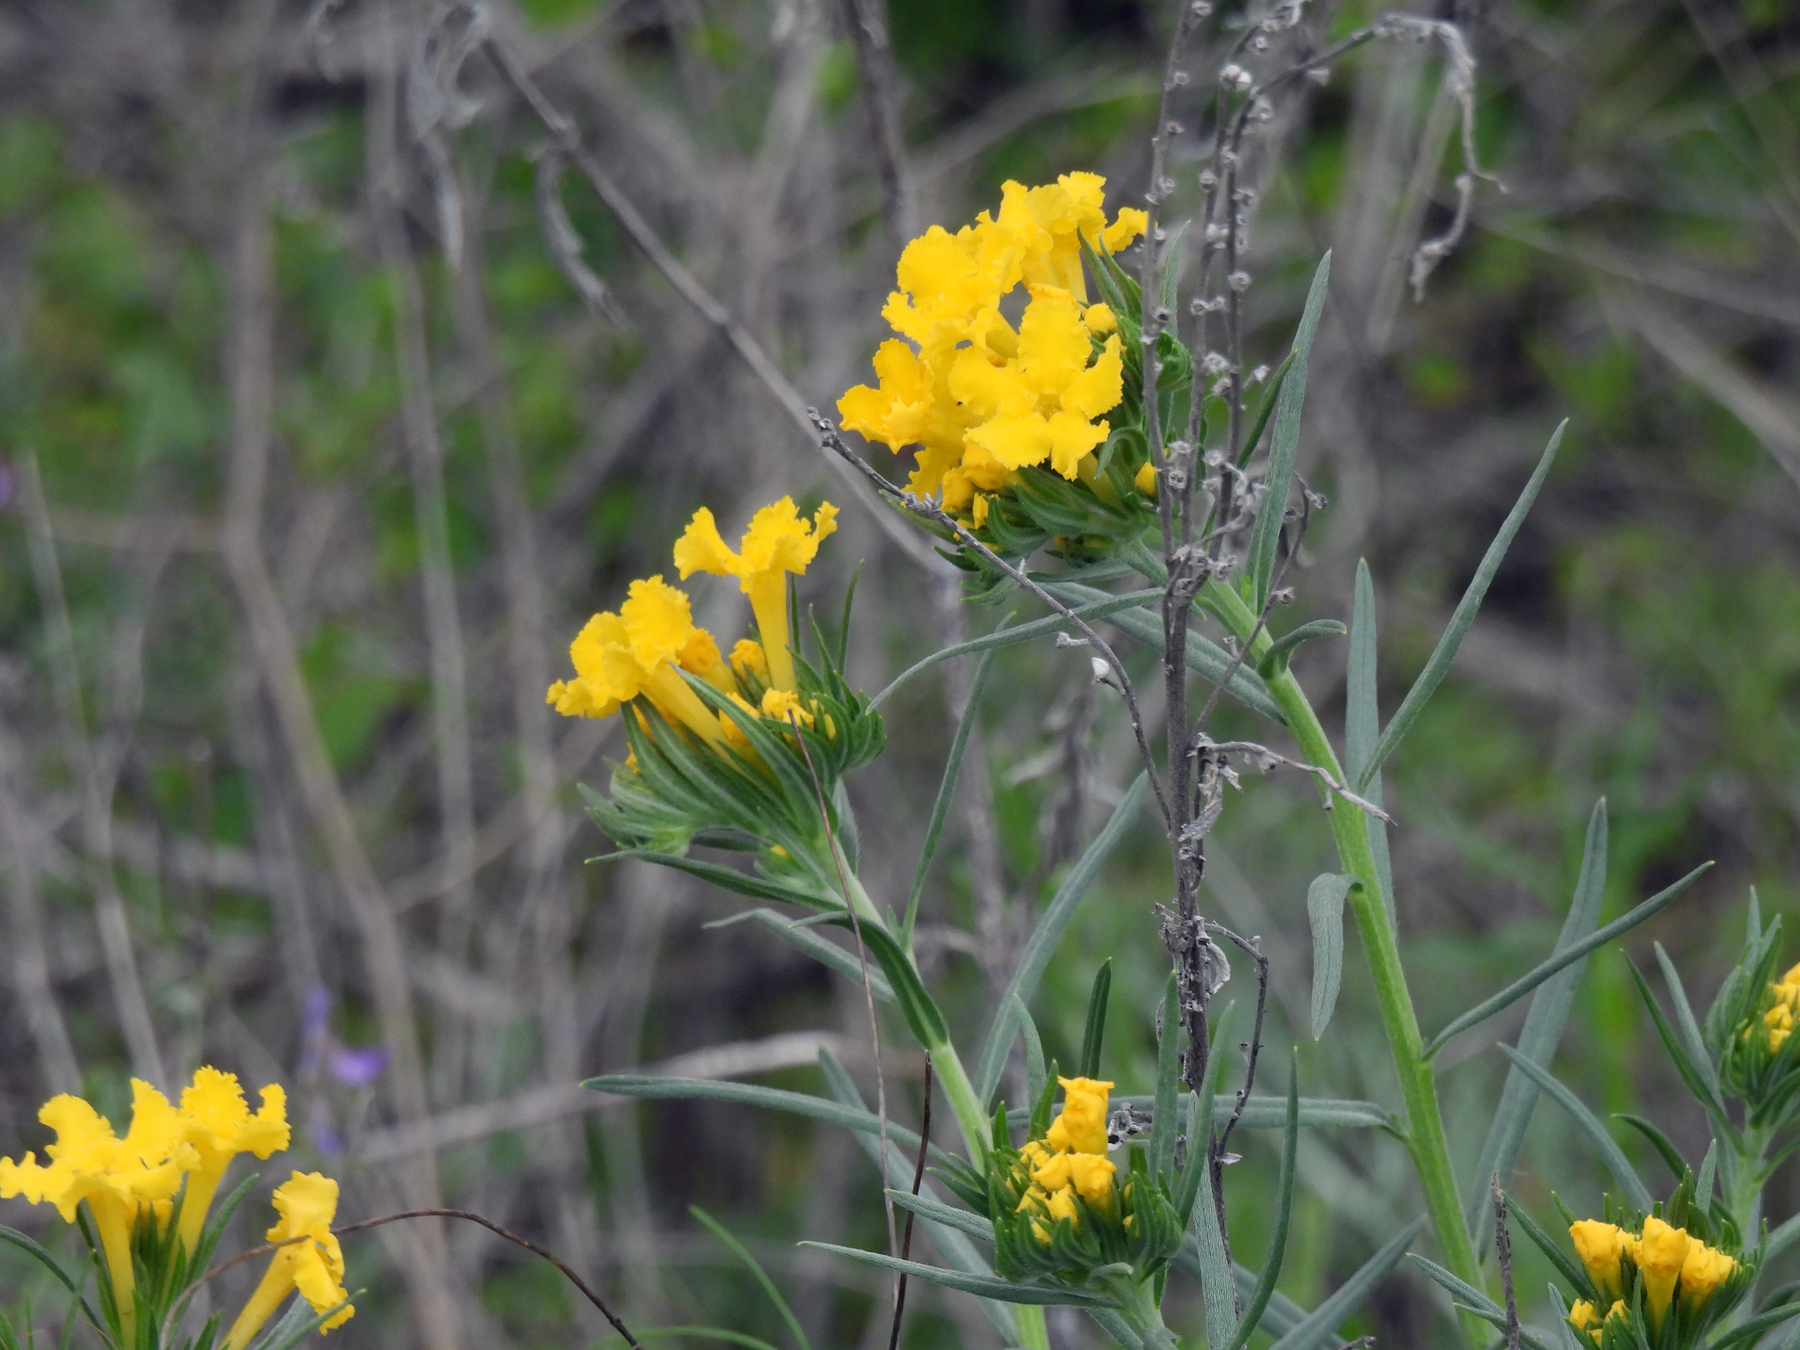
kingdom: Plantae
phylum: Tracheophyta
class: Magnoliopsida
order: Boraginales
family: Boraginaceae
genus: Lithospermum
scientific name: Lithospermum incisum
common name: Fringed gromwell
